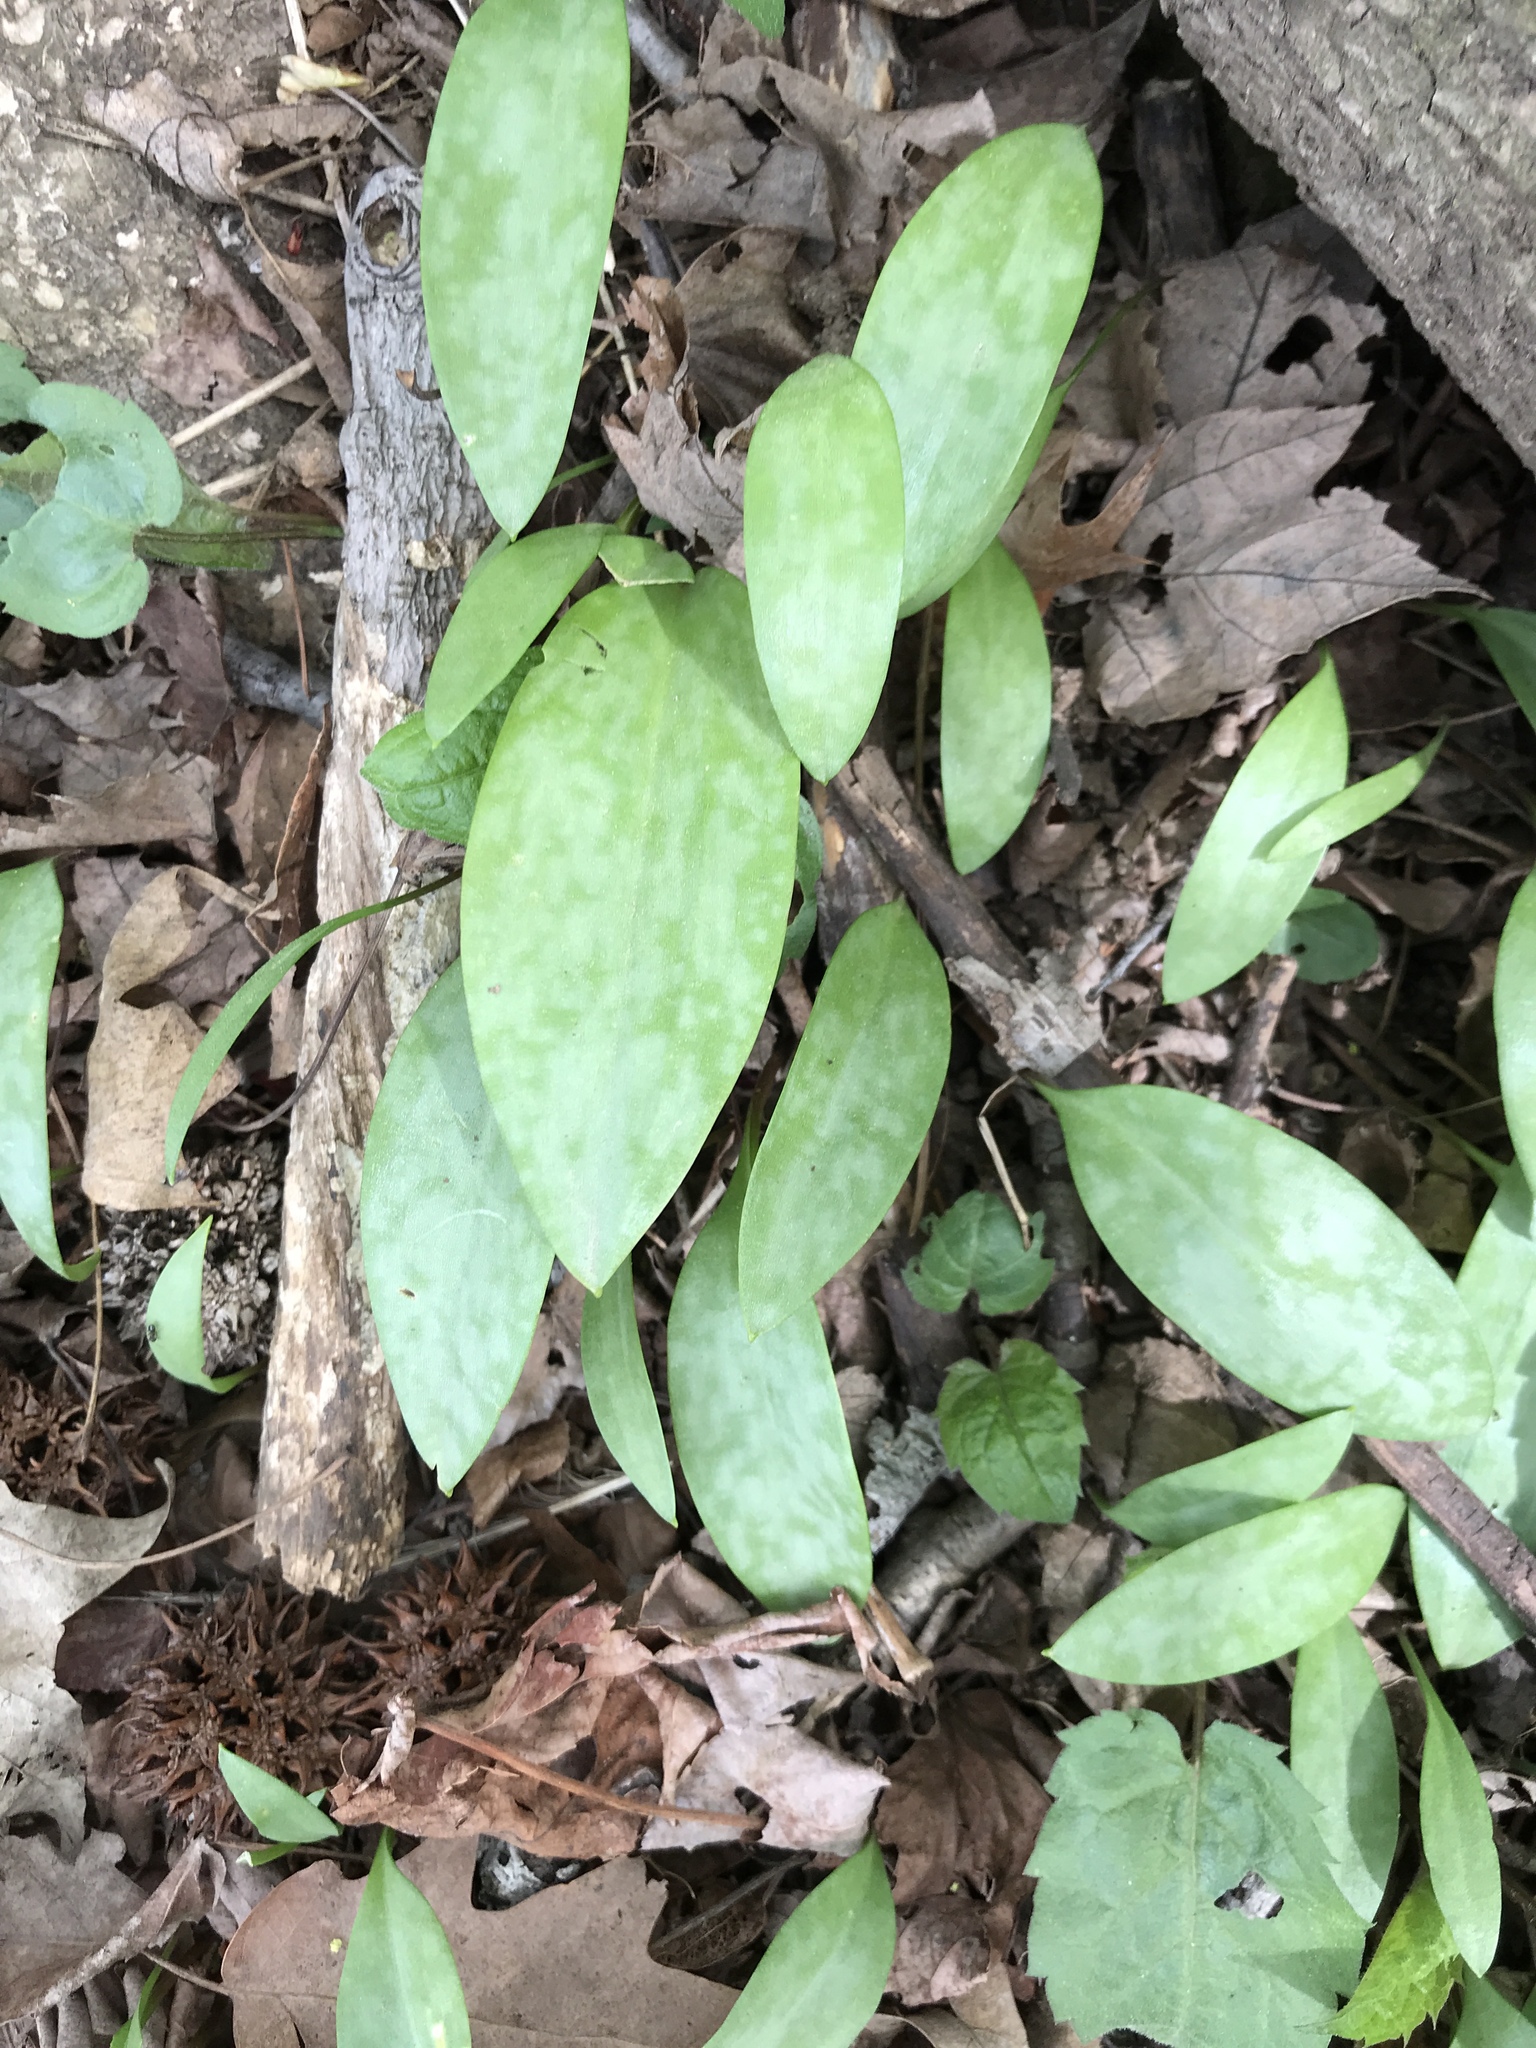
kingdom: Plantae
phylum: Tracheophyta
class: Liliopsida
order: Liliales
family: Liliaceae
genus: Erythronium
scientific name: Erythronium americanum
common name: Yellow adder's-tongue
